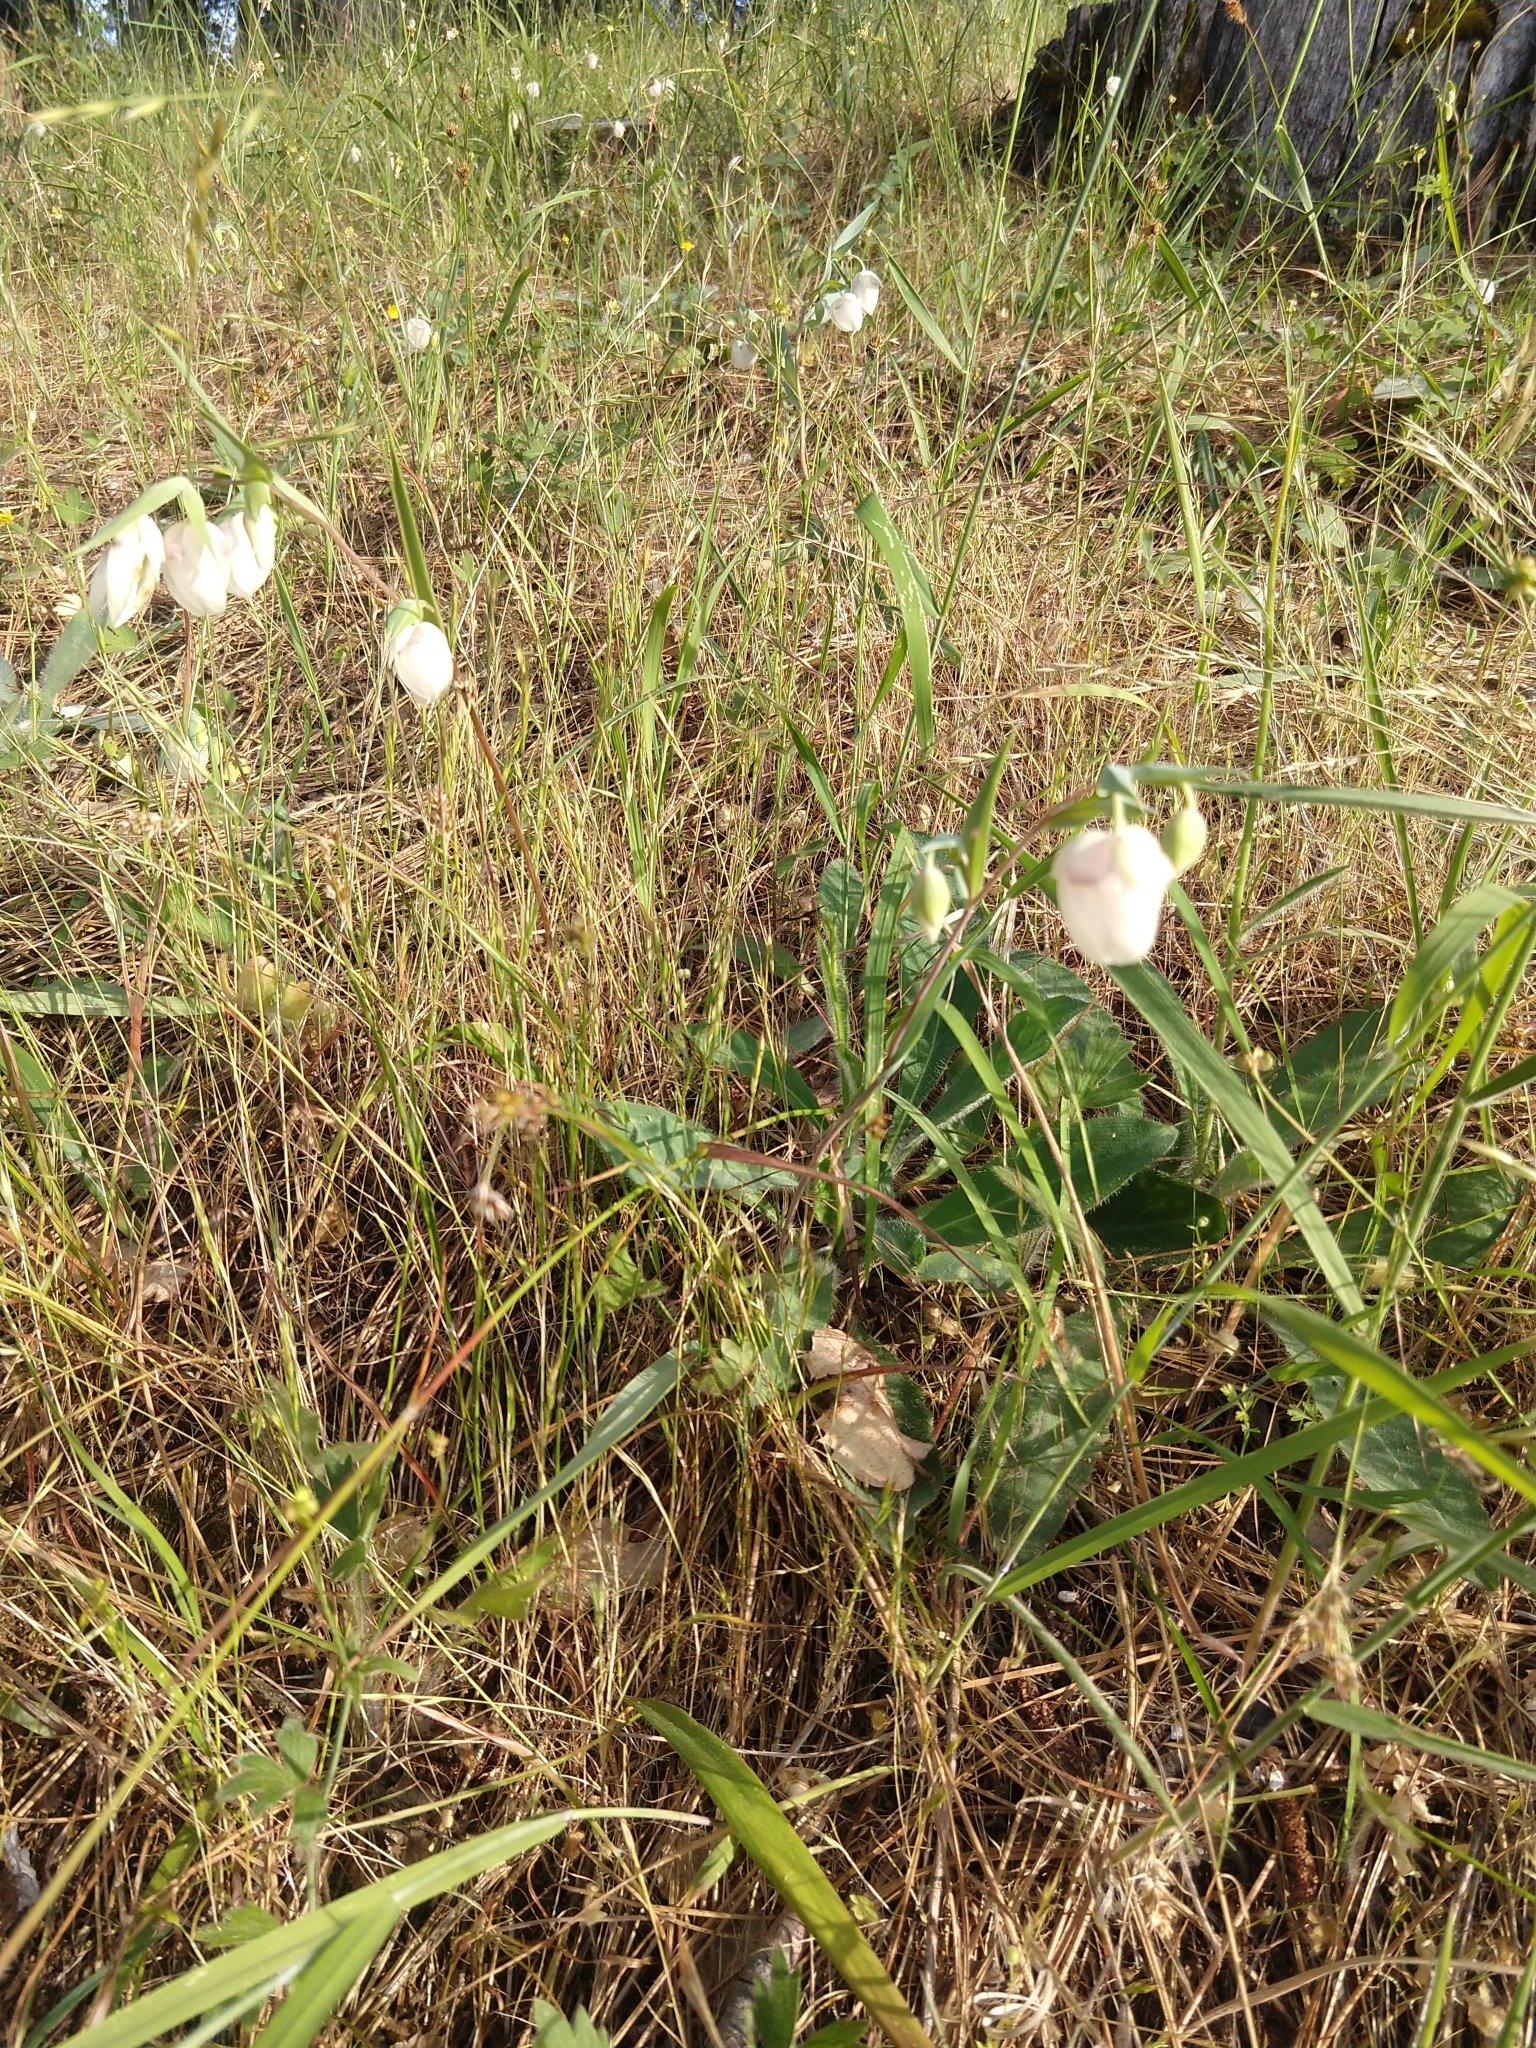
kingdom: Plantae
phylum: Tracheophyta
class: Liliopsida
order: Liliales
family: Liliaceae
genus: Calochortus
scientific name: Calochortus albus
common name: Fairy-lantern
